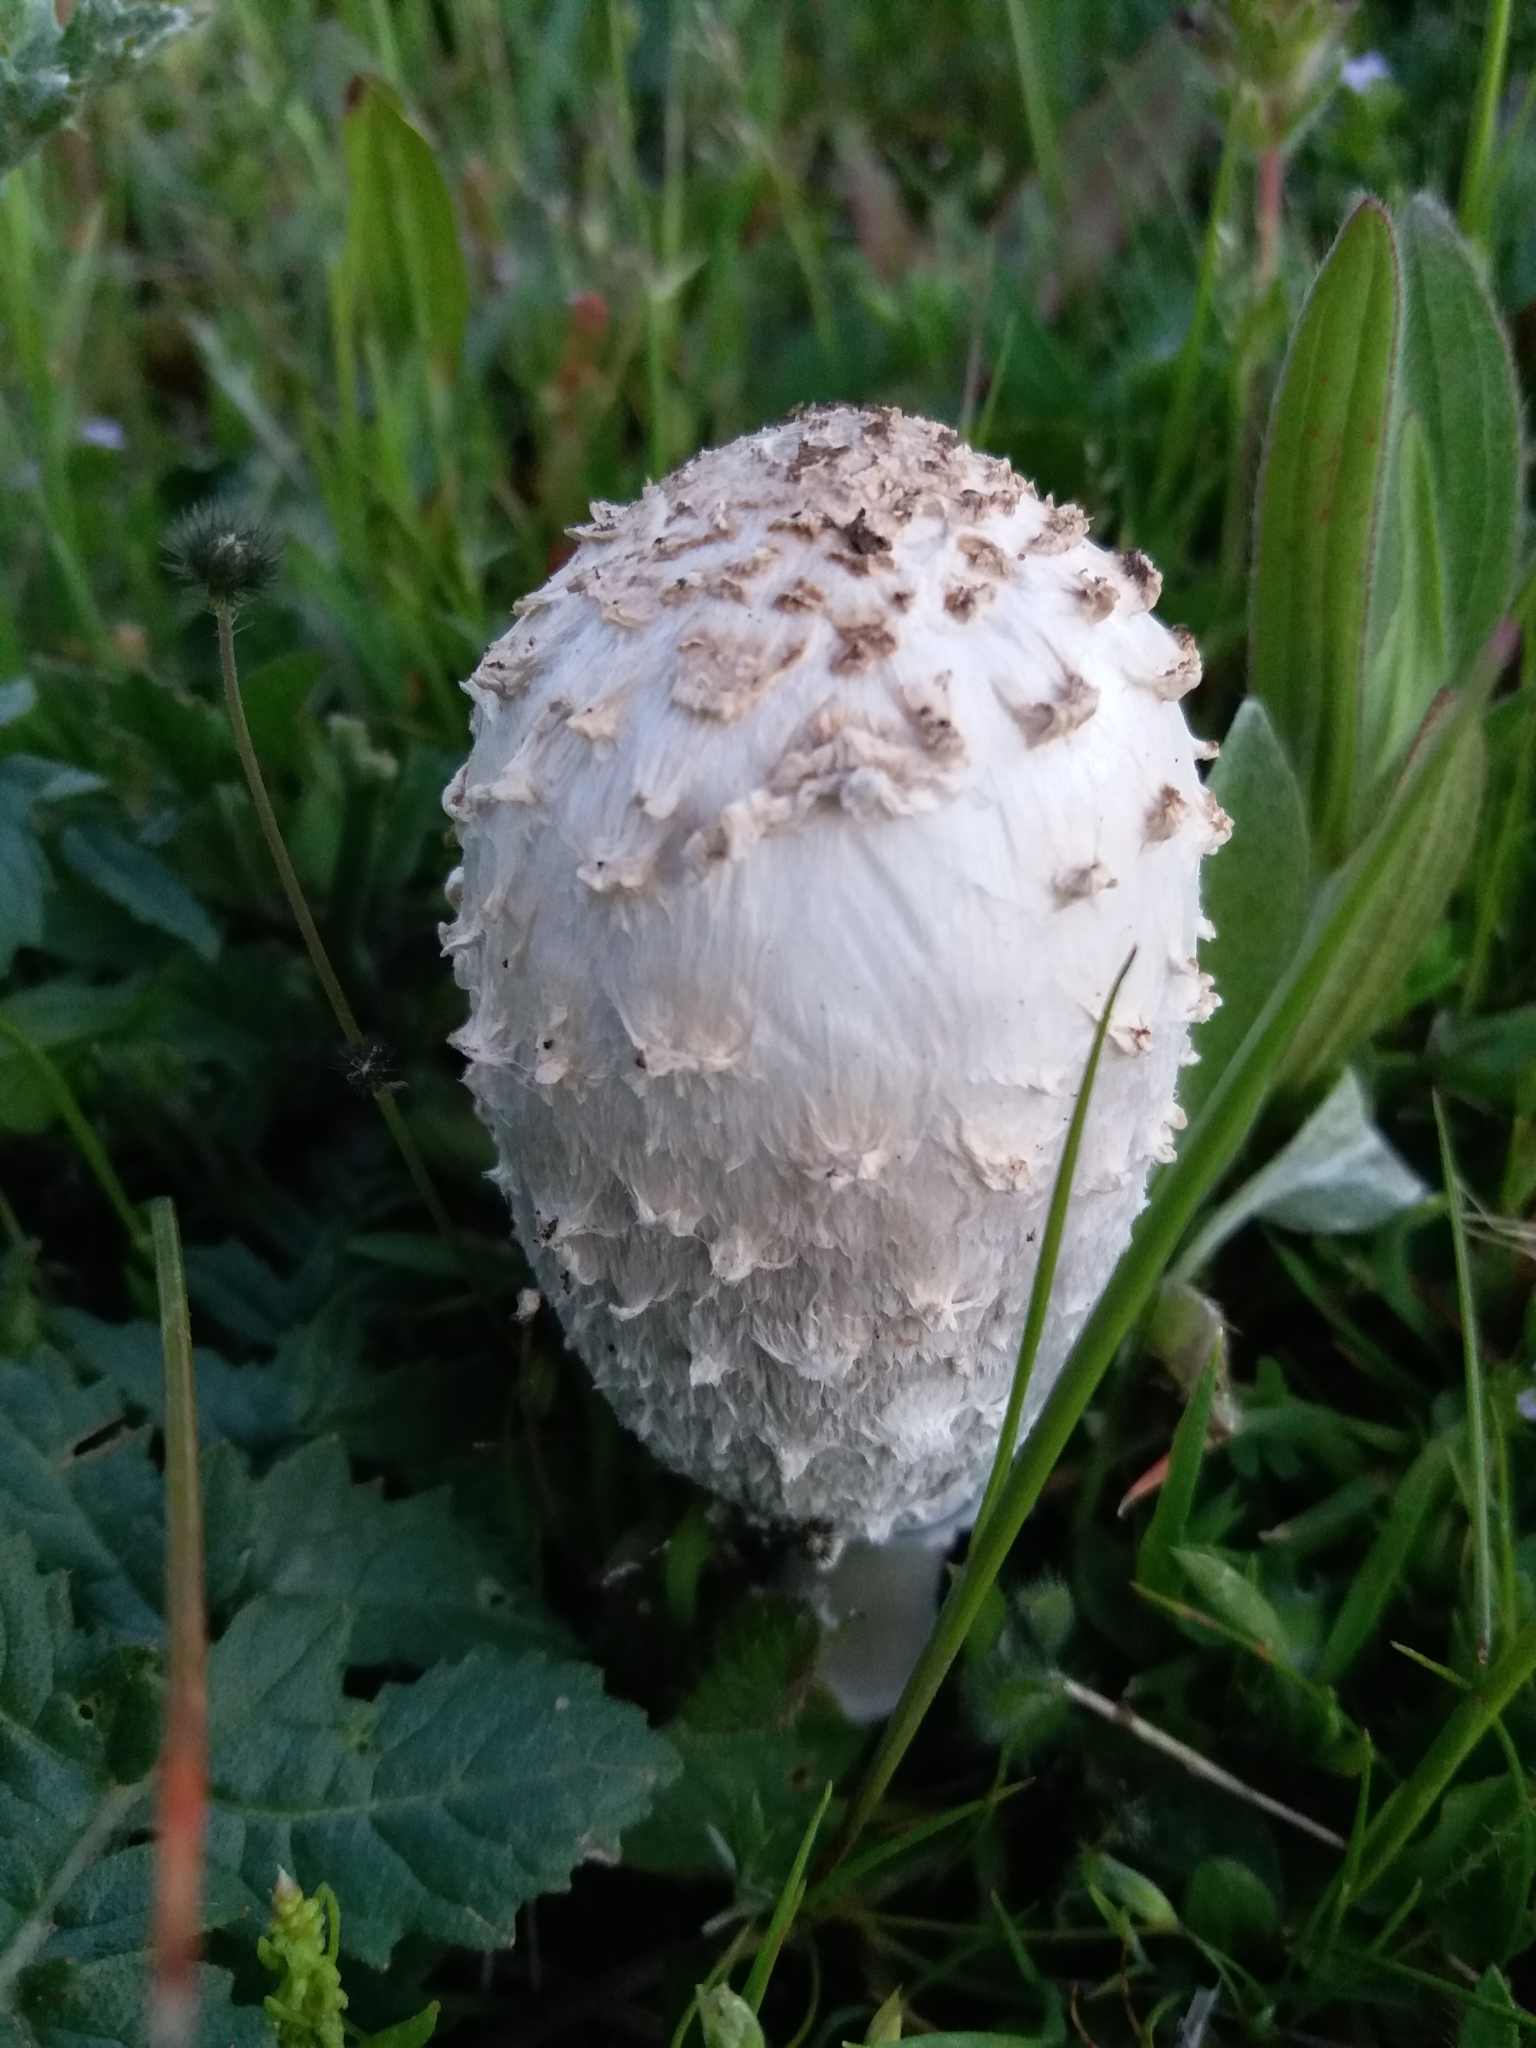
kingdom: Fungi
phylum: Basidiomycota
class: Agaricomycetes
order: Agaricales
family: Agaricaceae
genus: Coprinus
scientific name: Coprinus comatus
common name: Lawyer's wig
